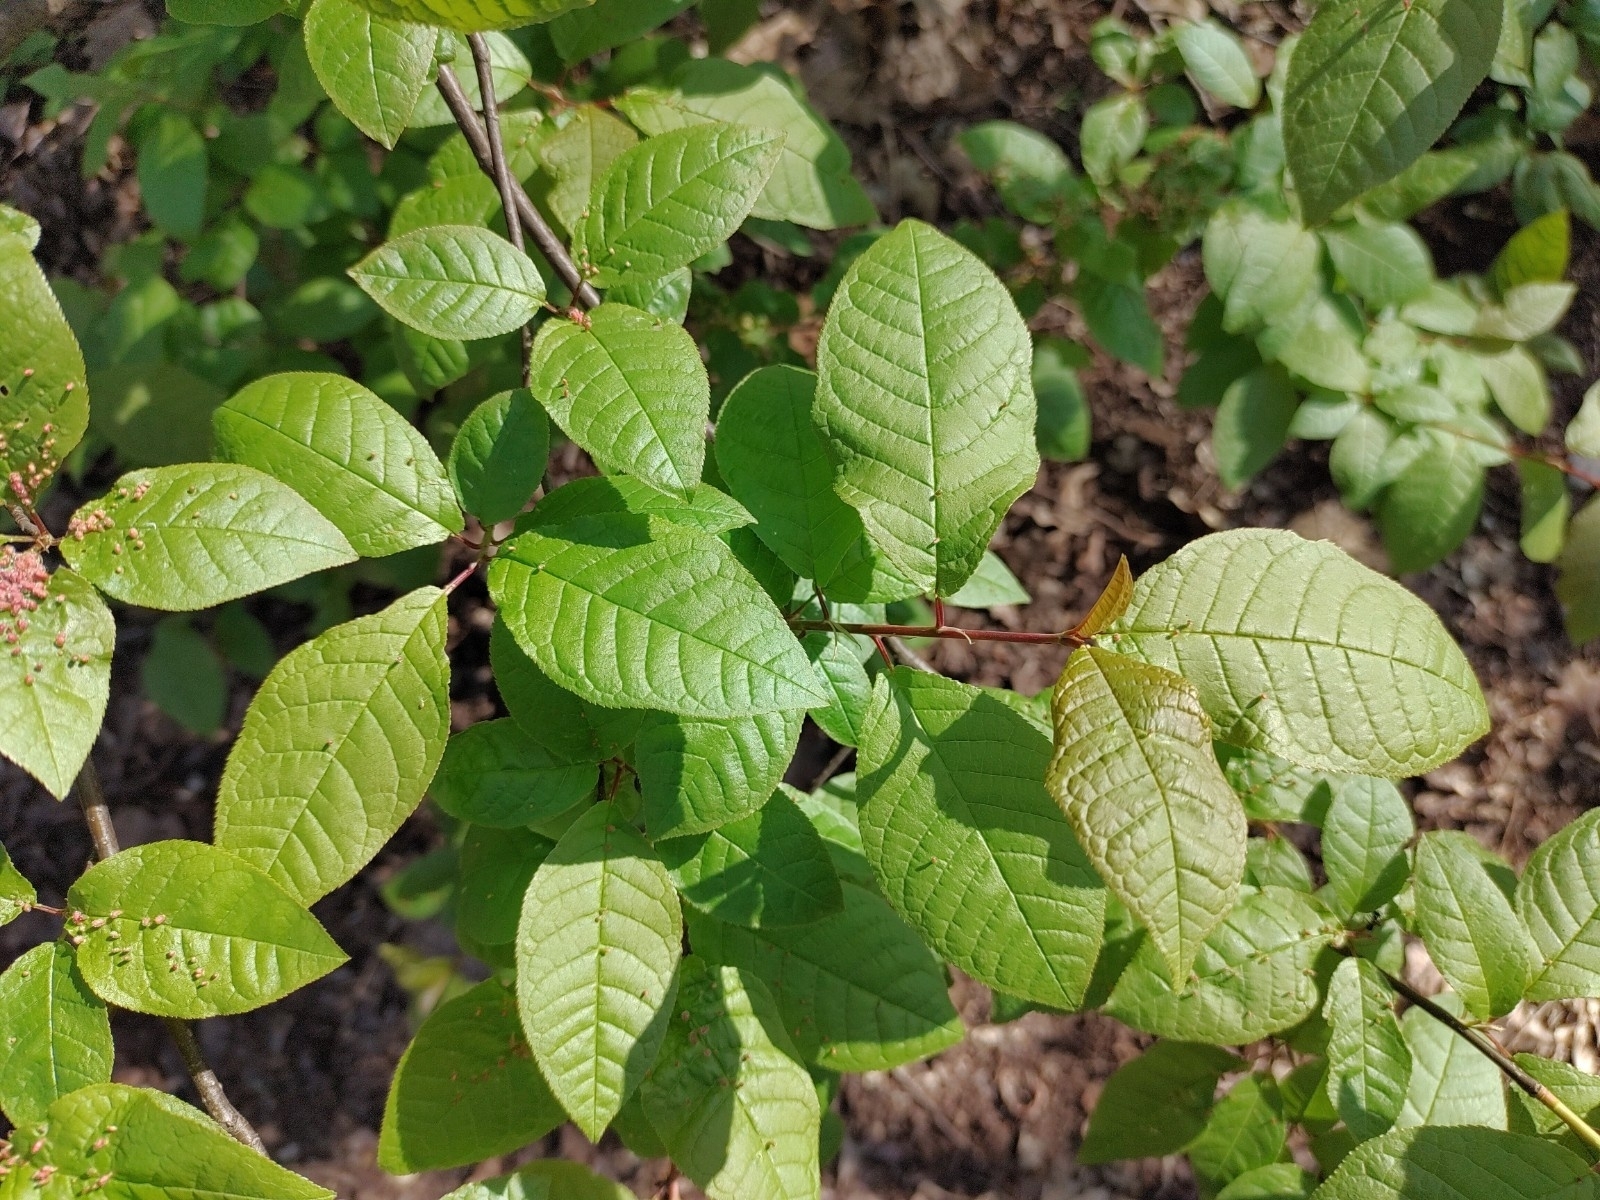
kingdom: Plantae
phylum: Tracheophyta
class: Magnoliopsida
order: Rosales
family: Rosaceae
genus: Prunus
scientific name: Prunus padus
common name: Bird cherry
